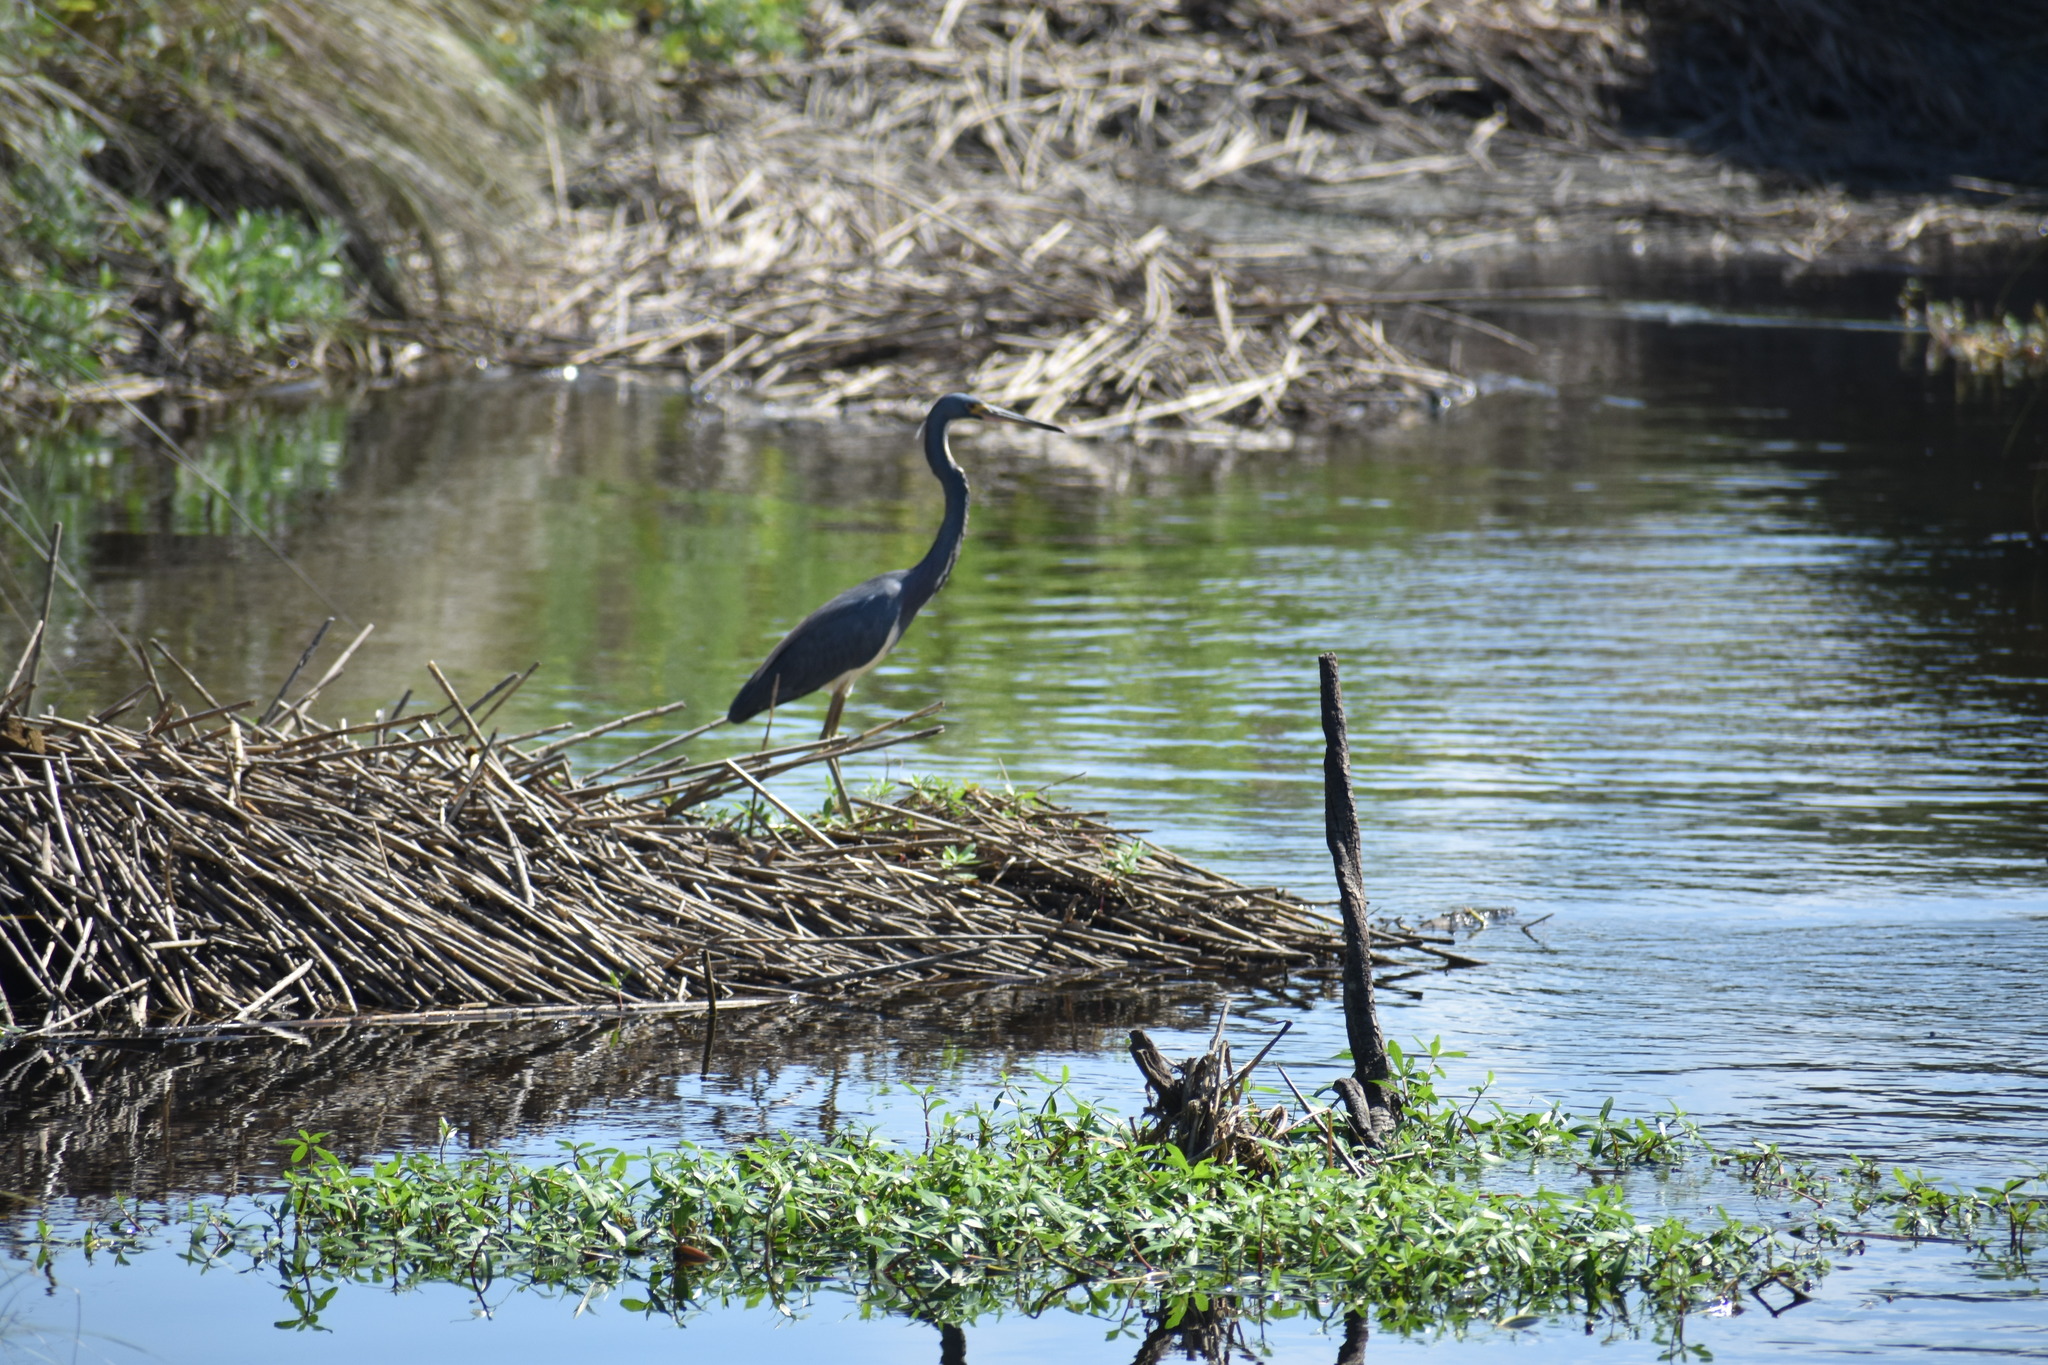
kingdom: Animalia
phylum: Chordata
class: Aves
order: Pelecaniformes
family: Ardeidae
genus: Egretta
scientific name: Egretta tricolor
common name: Tricolored heron
